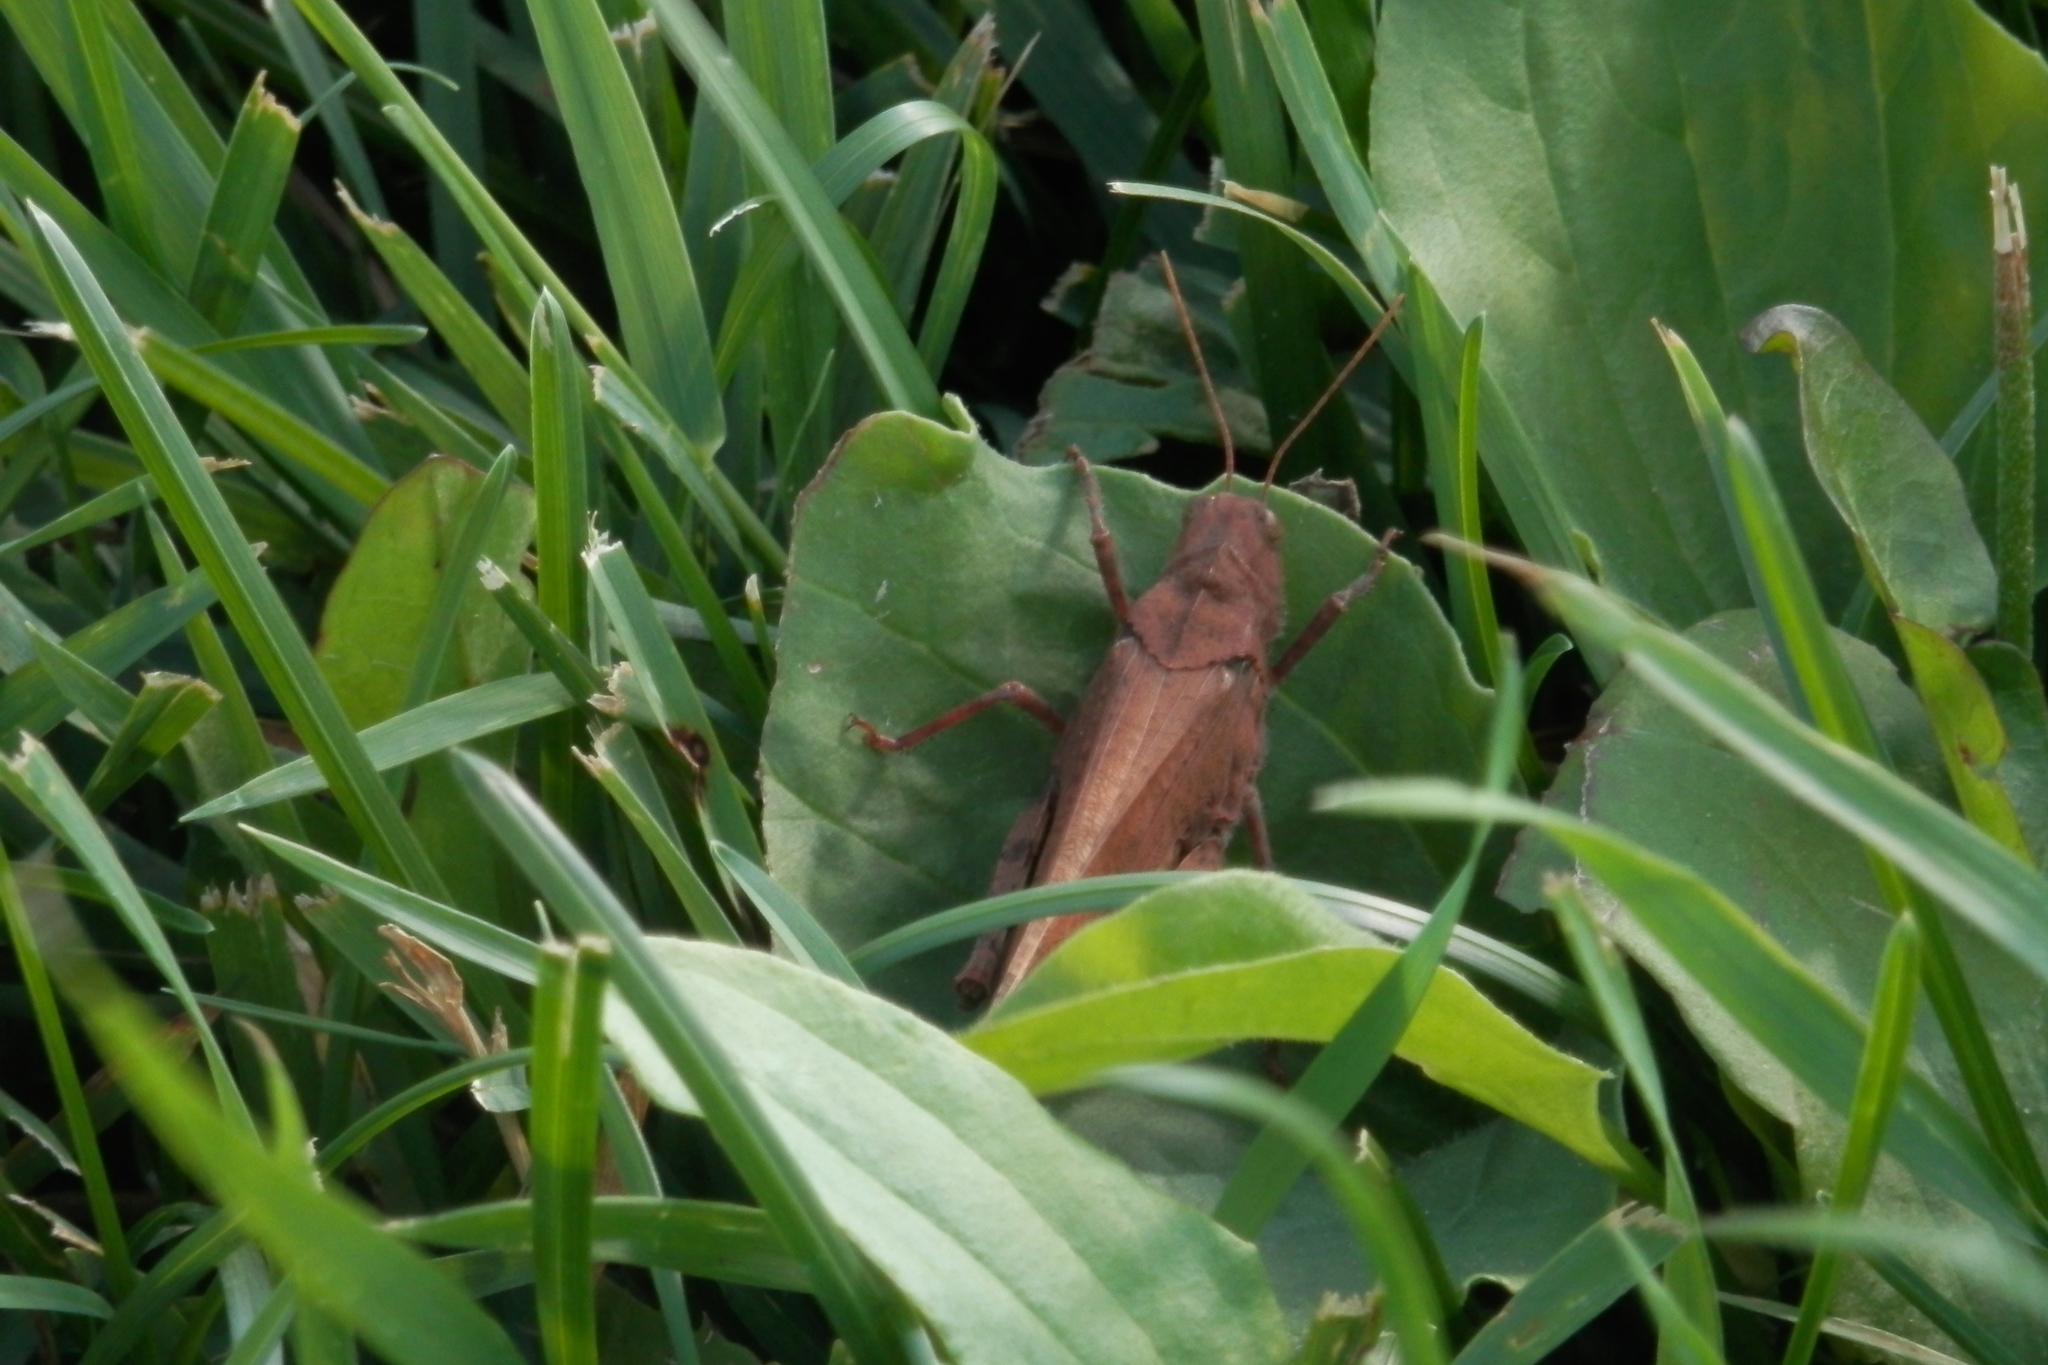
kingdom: Animalia
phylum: Arthropoda
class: Insecta
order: Orthoptera
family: Acrididae
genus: Dissosteira
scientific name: Dissosteira carolina
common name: Carolina grasshopper
